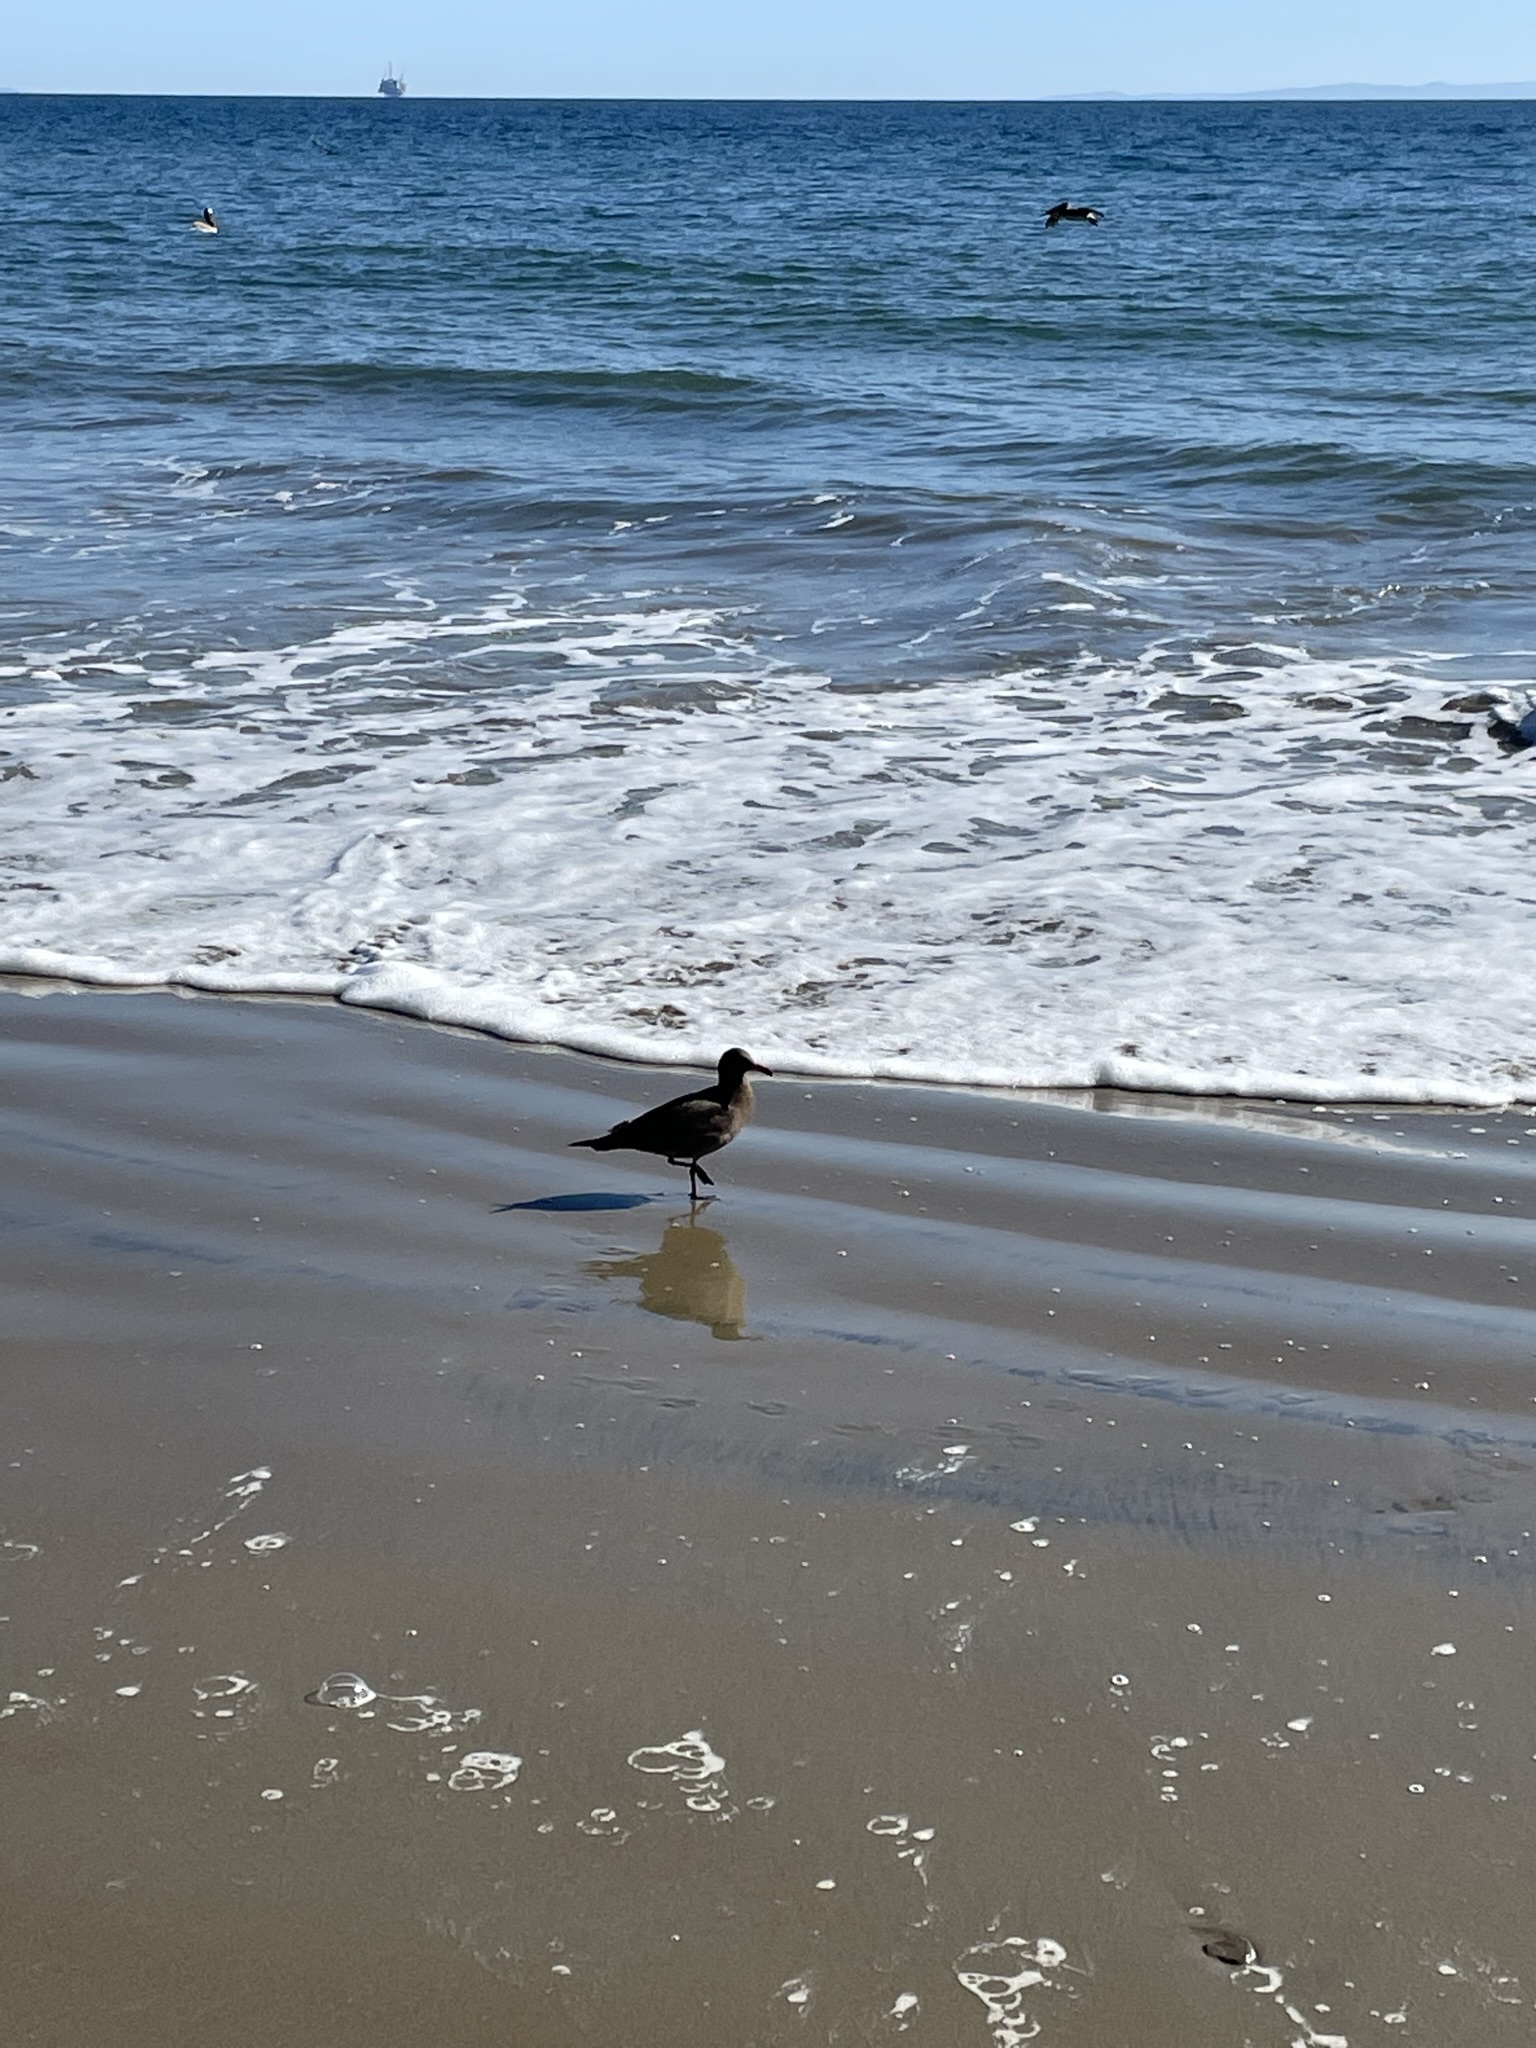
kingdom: Animalia
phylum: Chordata
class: Aves
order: Charadriiformes
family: Laridae
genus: Larus
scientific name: Larus heermanni
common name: Heermann's gull
